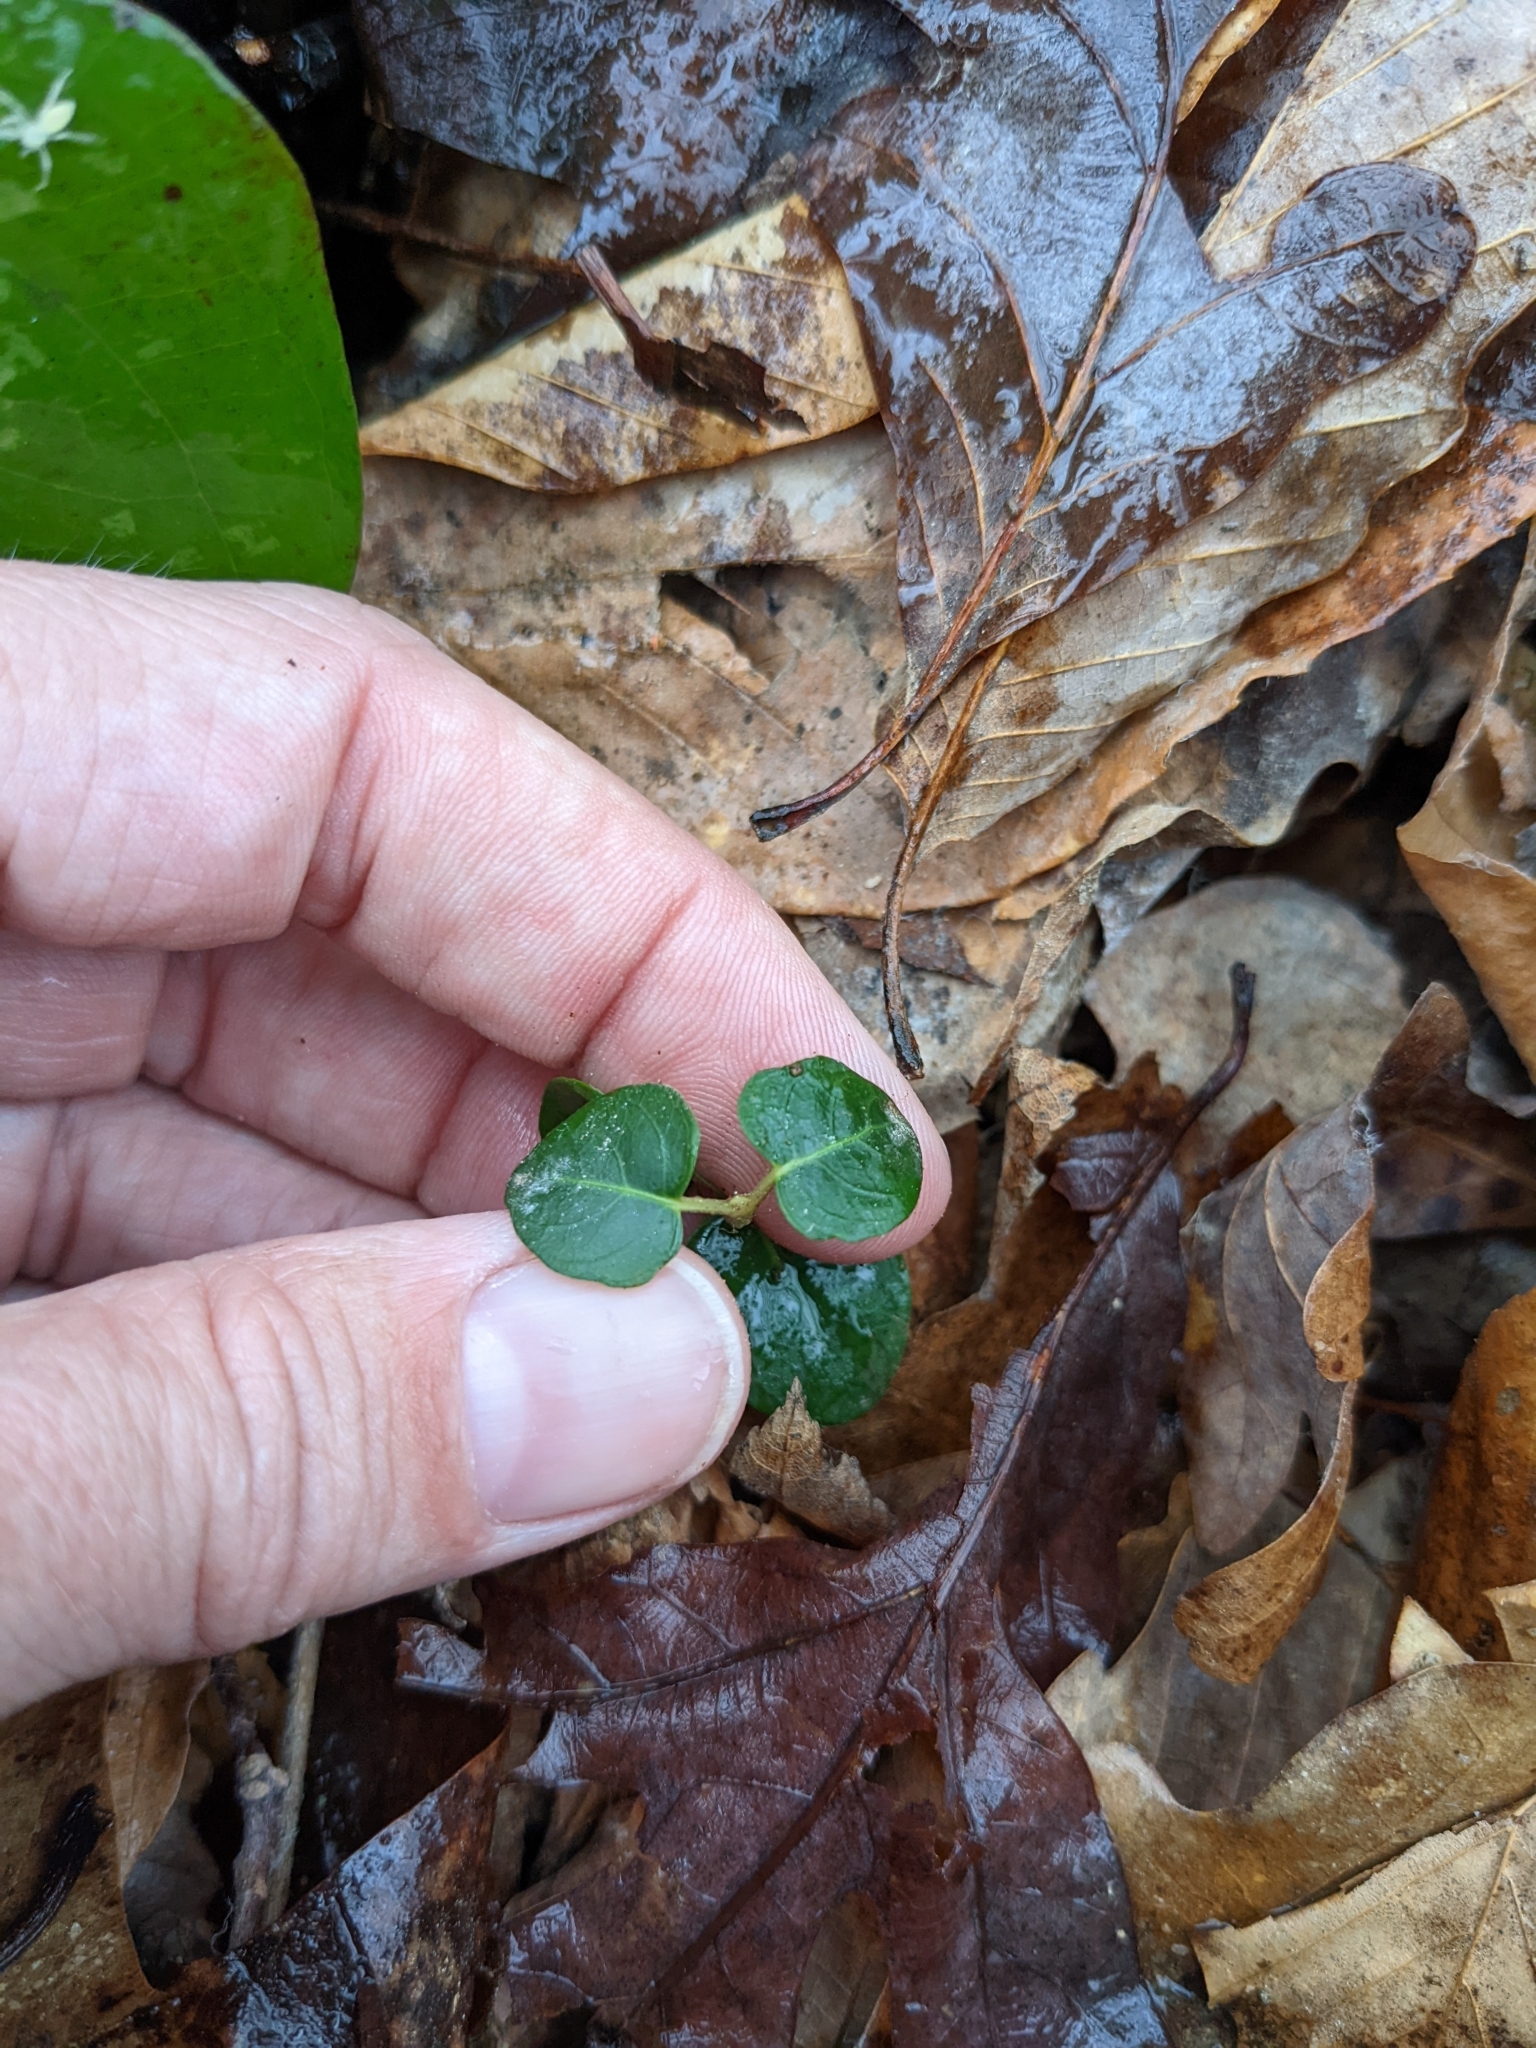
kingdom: Plantae
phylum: Tracheophyta
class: Magnoliopsida
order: Gentianales
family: Rubiaceae
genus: Mitchella
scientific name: Mitchella repens
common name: Partridge-berry
